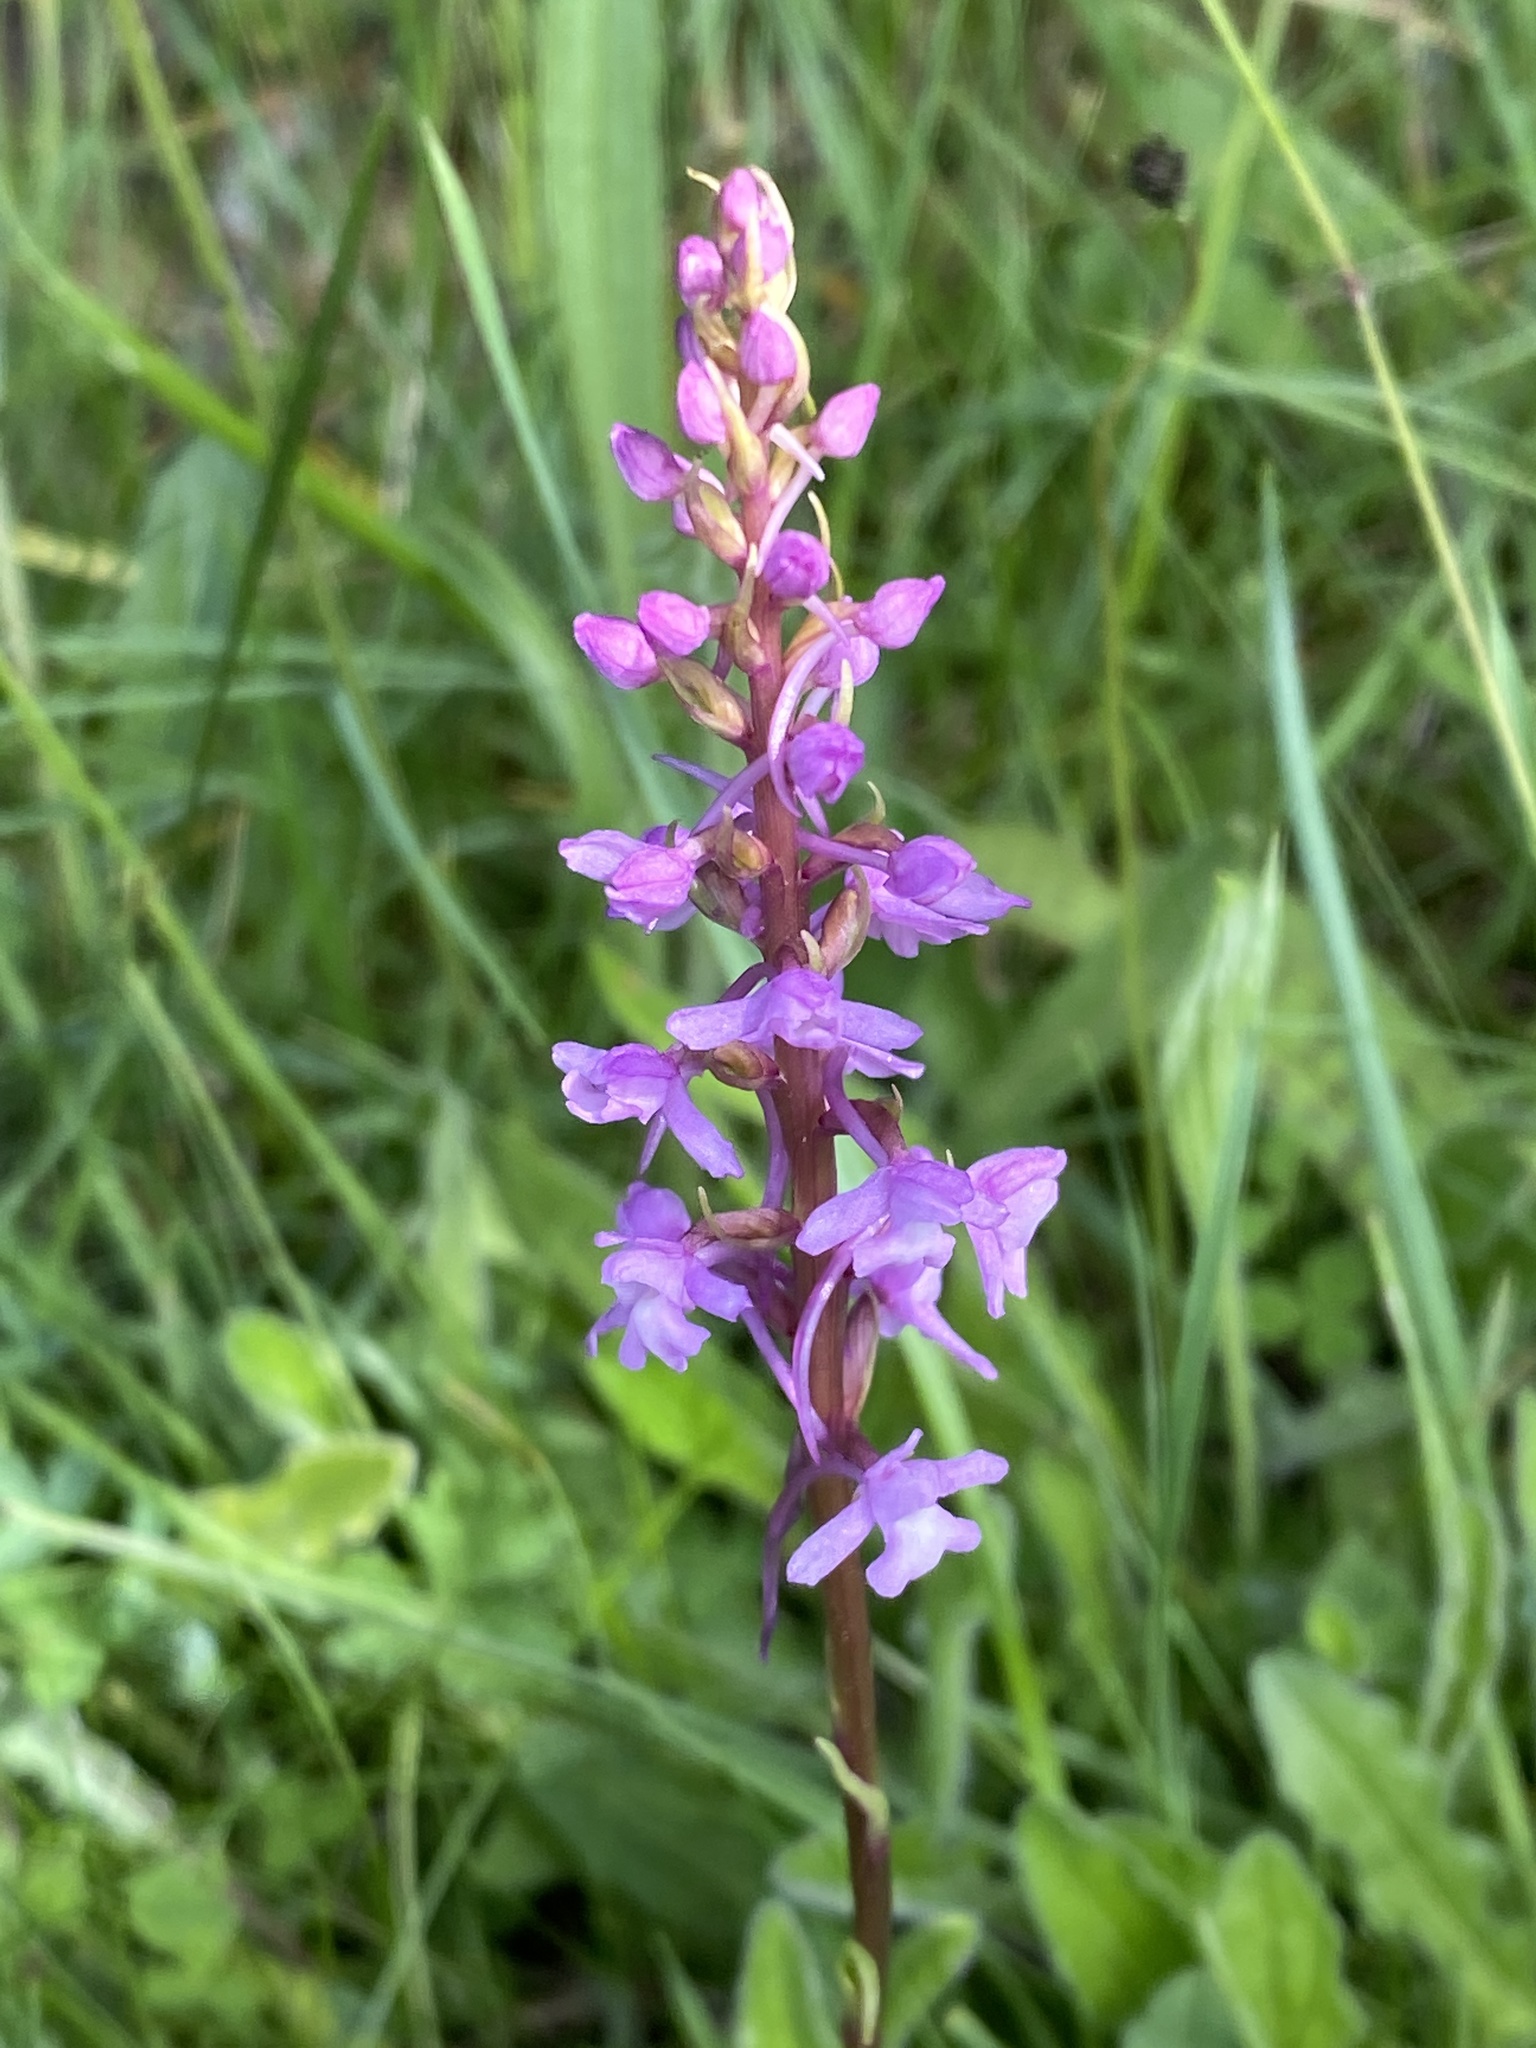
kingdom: Plantae
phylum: Tracheophyta
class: Liliopsida
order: Asparagales
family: Orchidaceae
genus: Gymnadenia
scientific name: Gymnadenia conopsea
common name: Fragrant orchid
